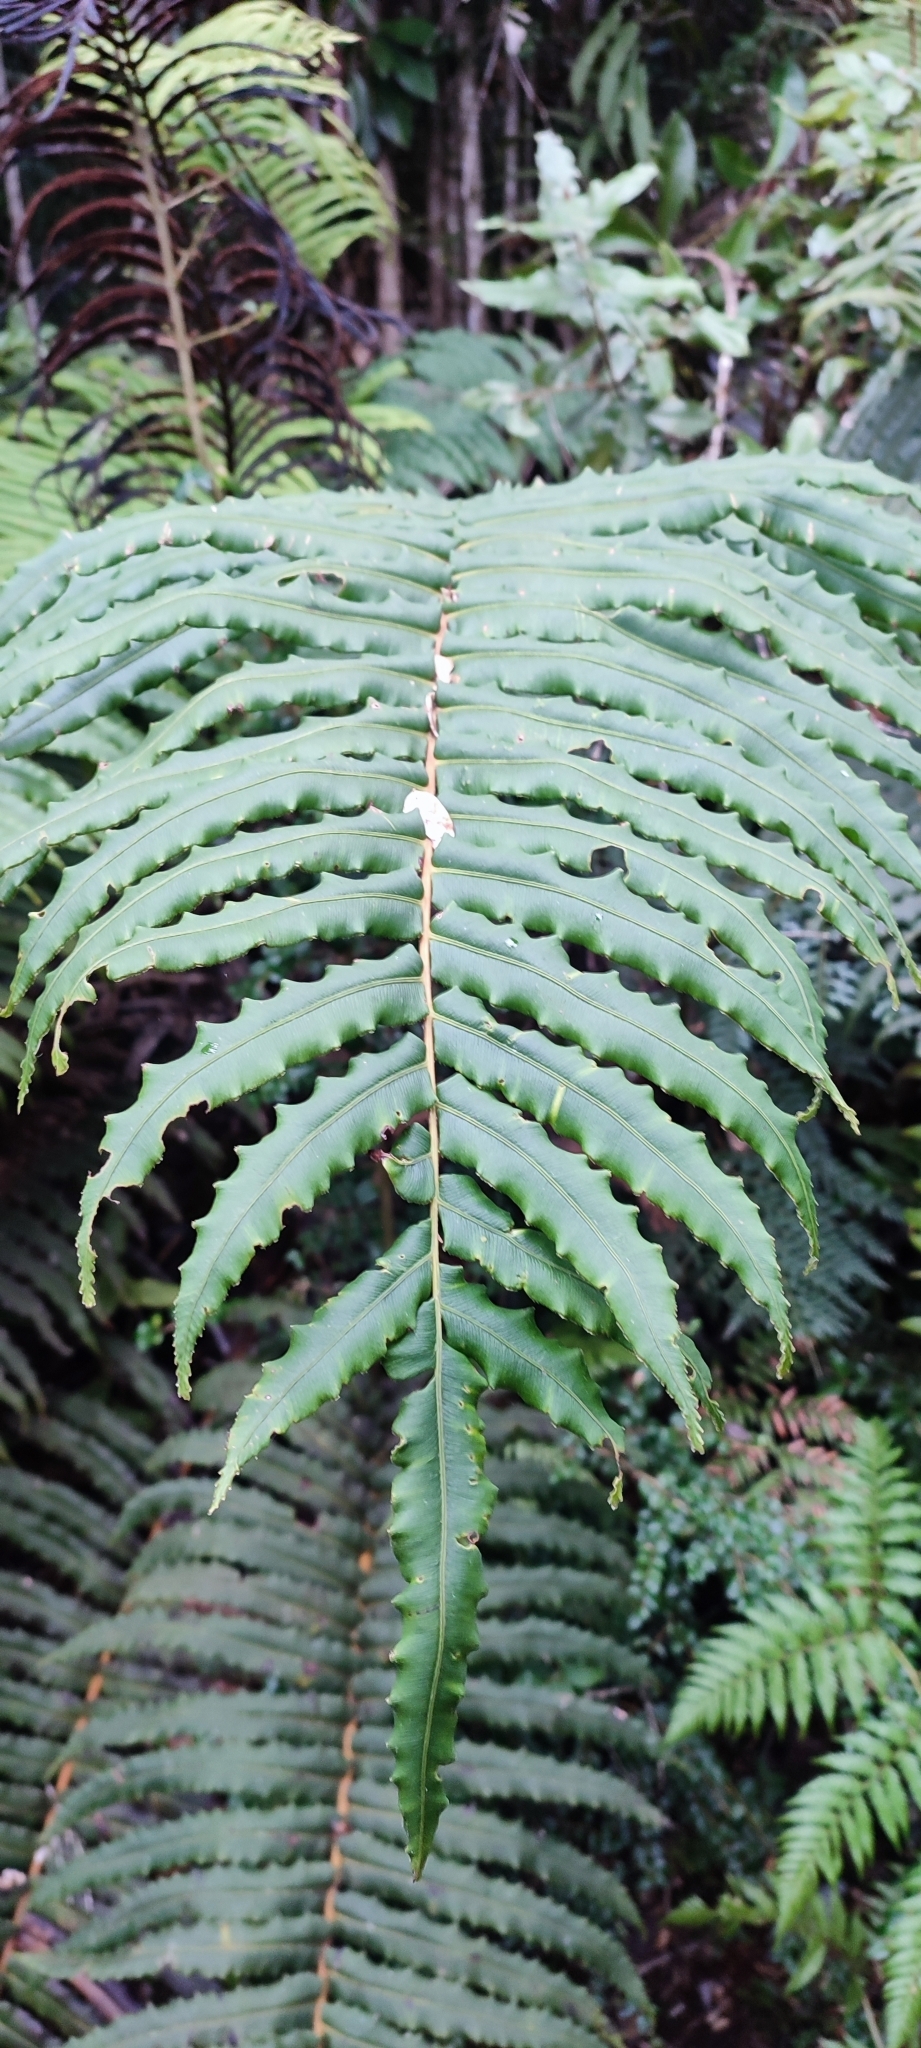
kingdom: Plantae
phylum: Tracheophyta
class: Magnoliopsida
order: Proteales
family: Proteaceae
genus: Lomatia
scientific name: Lomatia ferruginea
